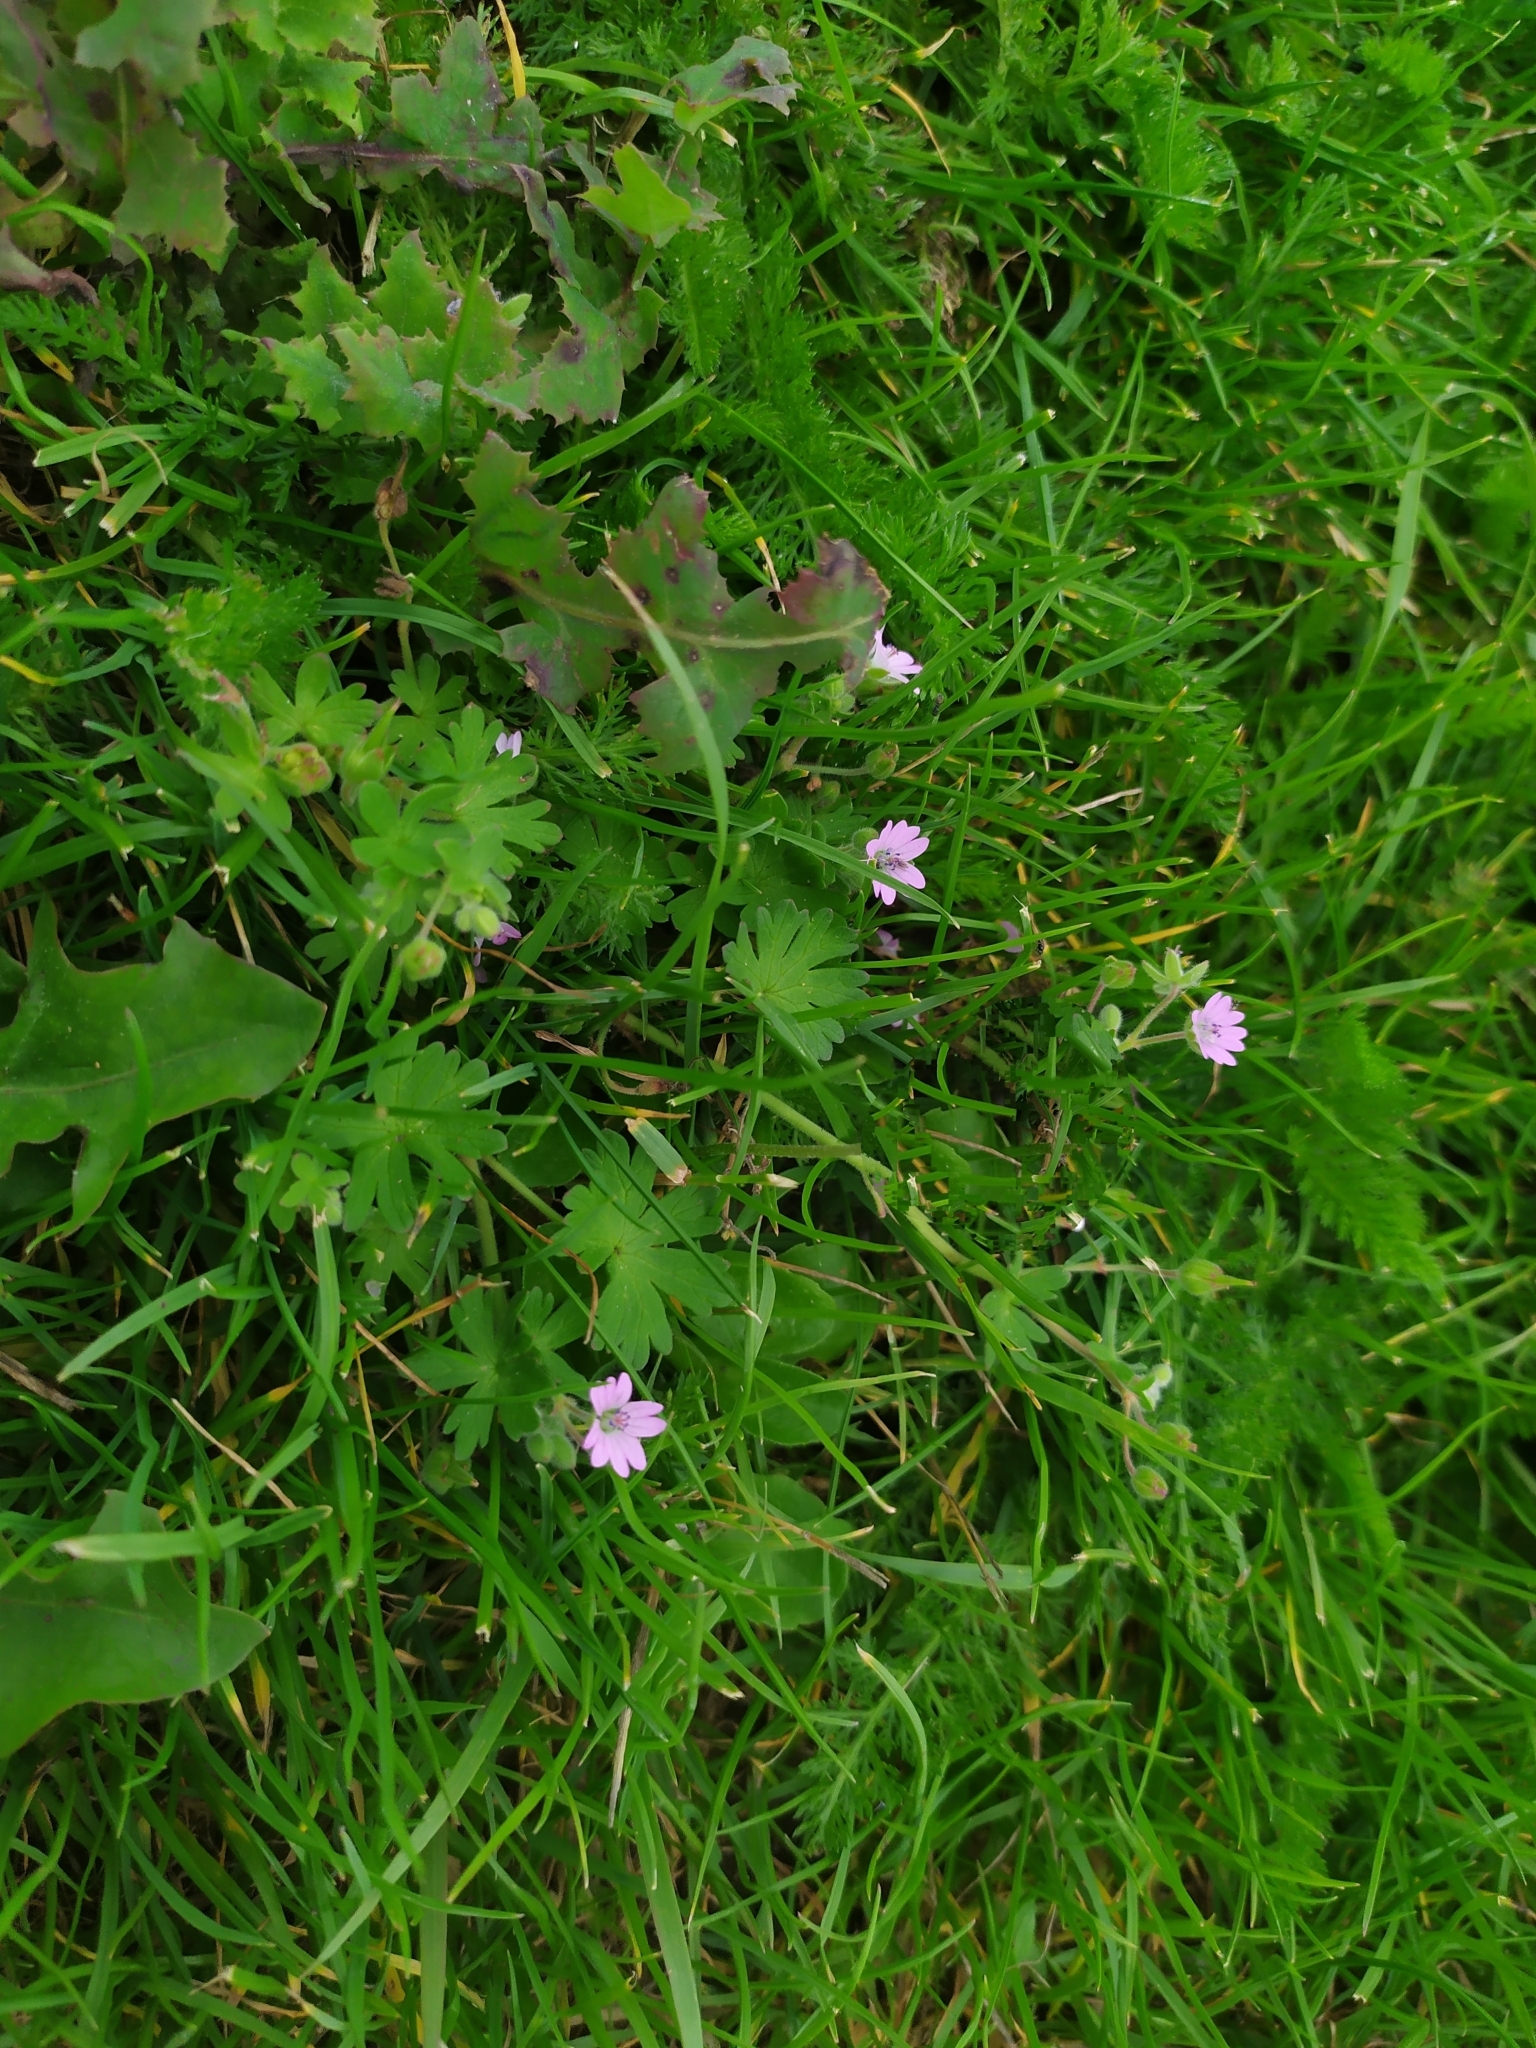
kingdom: Plantae
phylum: Tracheophyta
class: Magnoliopsida
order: Geraniales
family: Geraniaceae
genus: Geranium
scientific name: Geranium molle
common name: Dove's-foot crane's-bill
